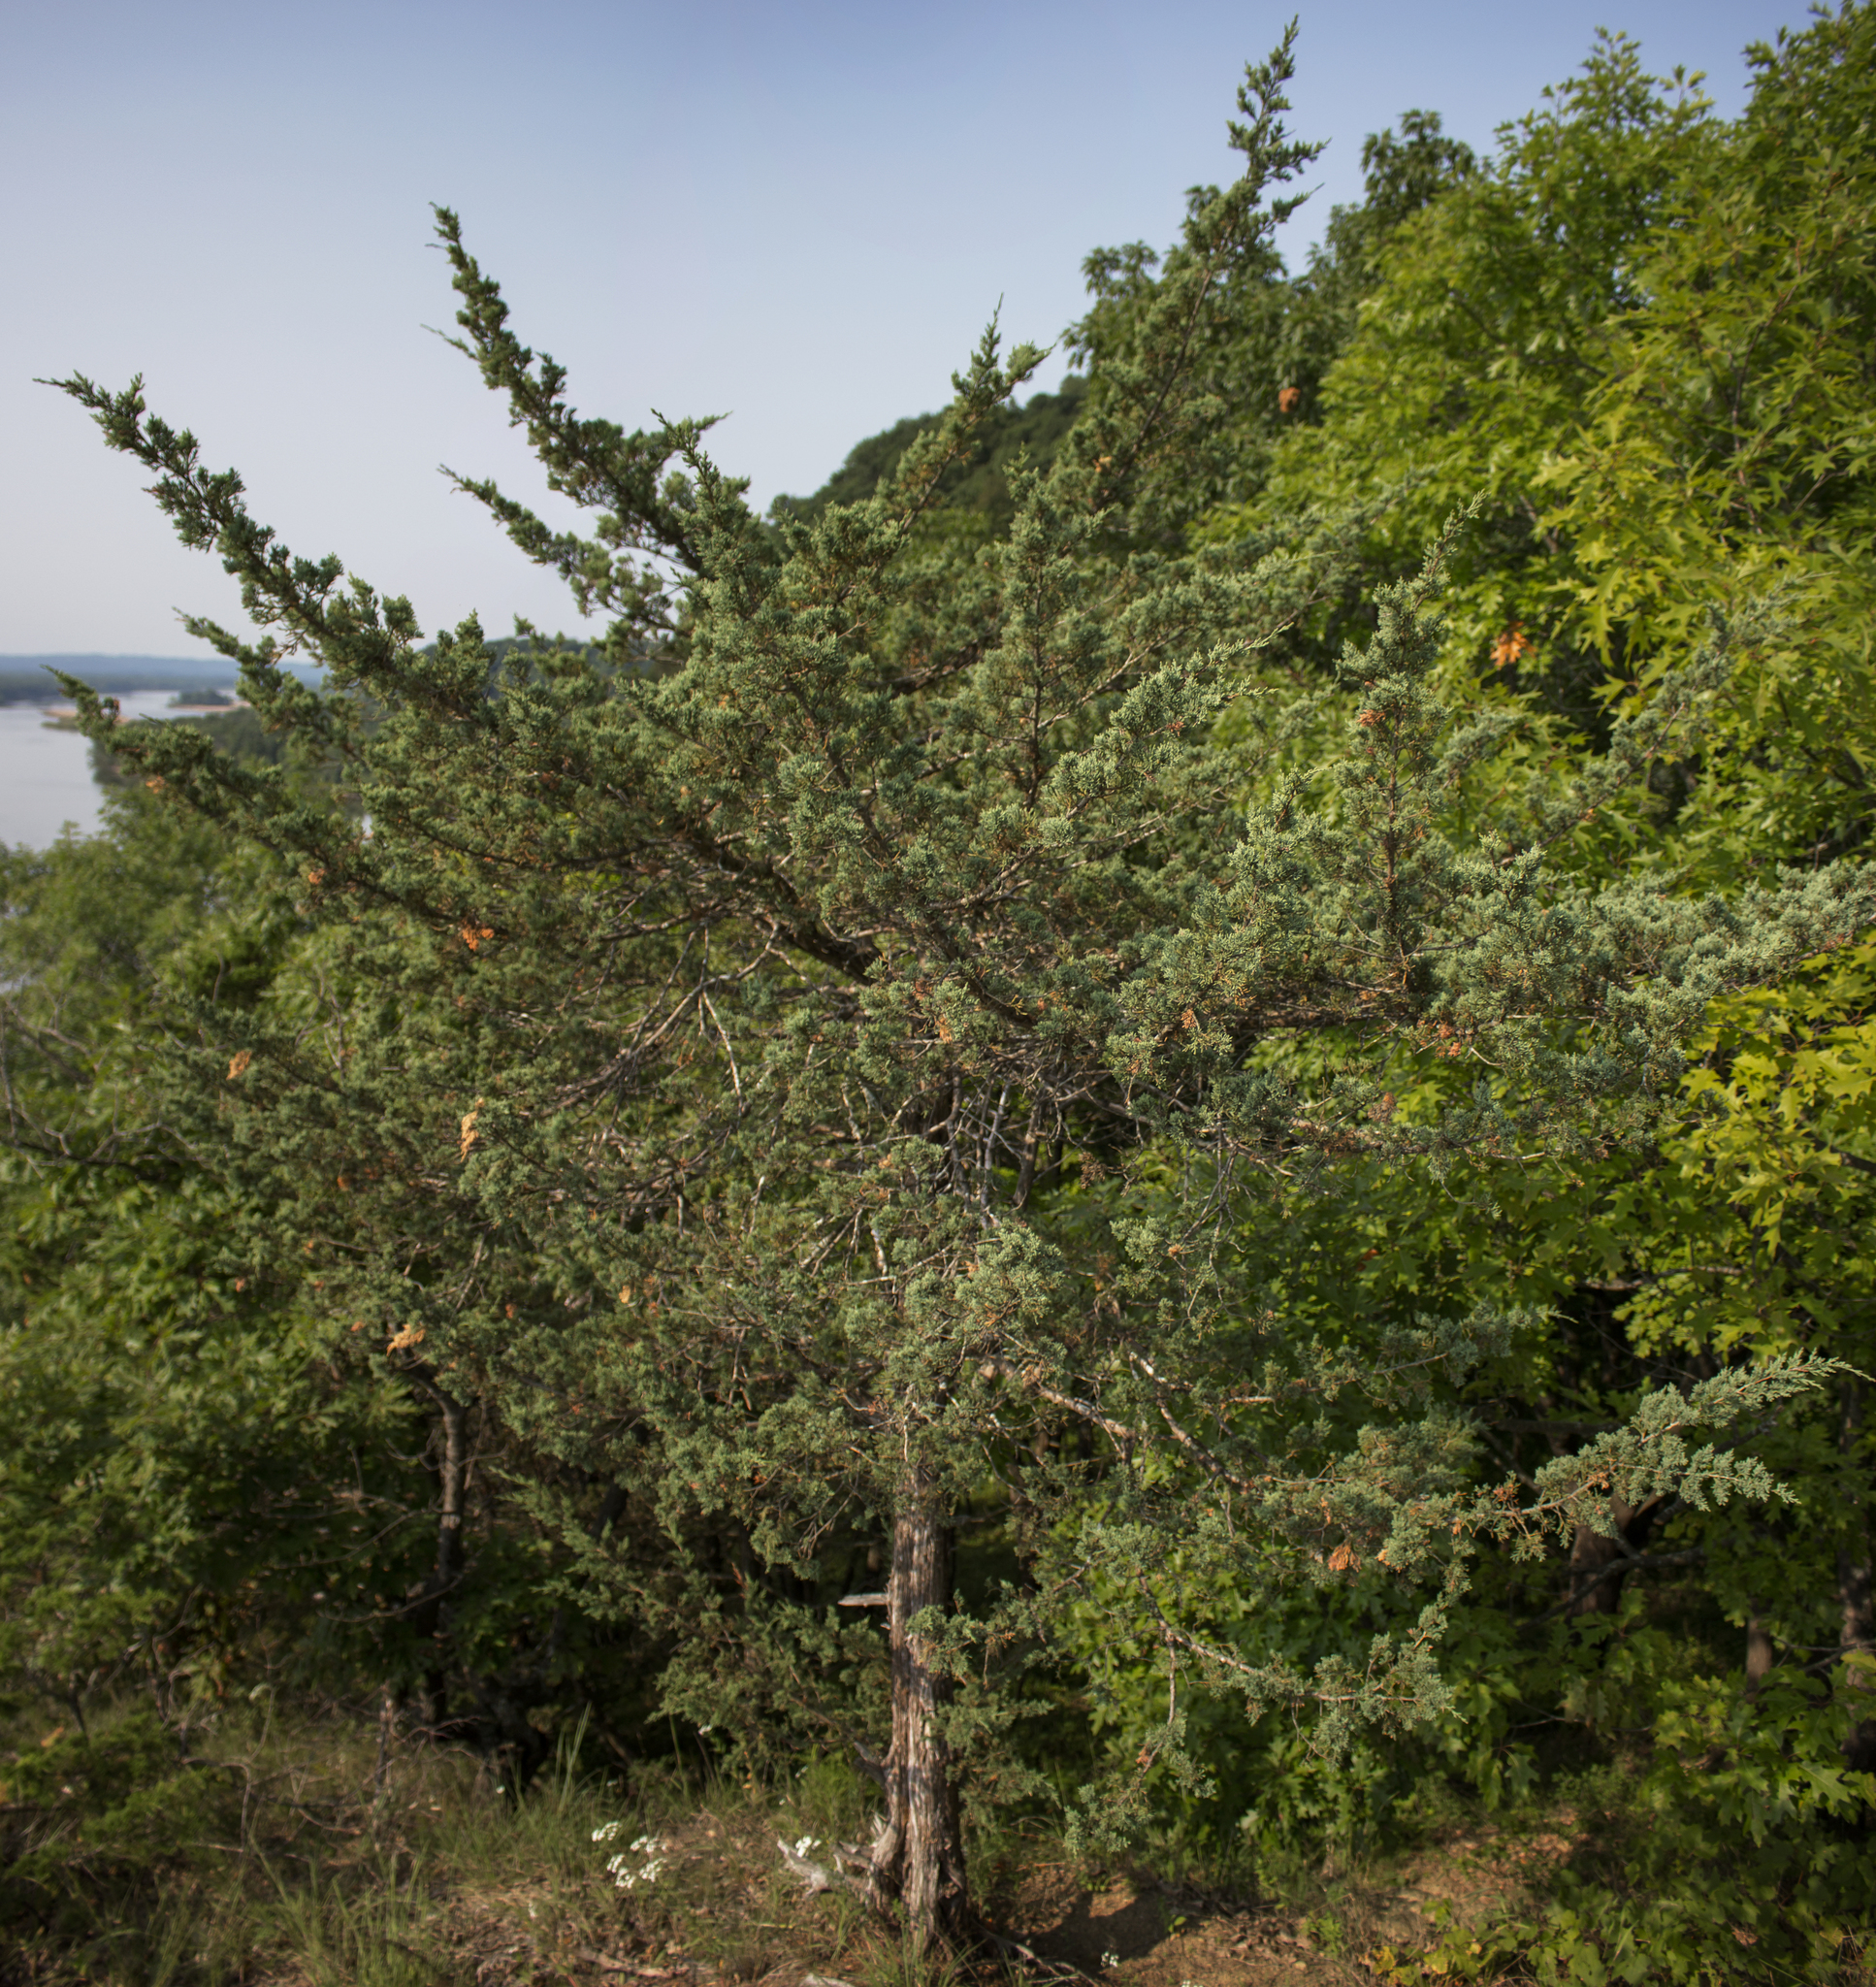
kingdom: Plantae
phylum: Tracheophyta
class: Pinopsida
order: Pinales
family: Cupressaceae
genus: Juniperus
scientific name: Juniperus virginiana
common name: Red juniper
